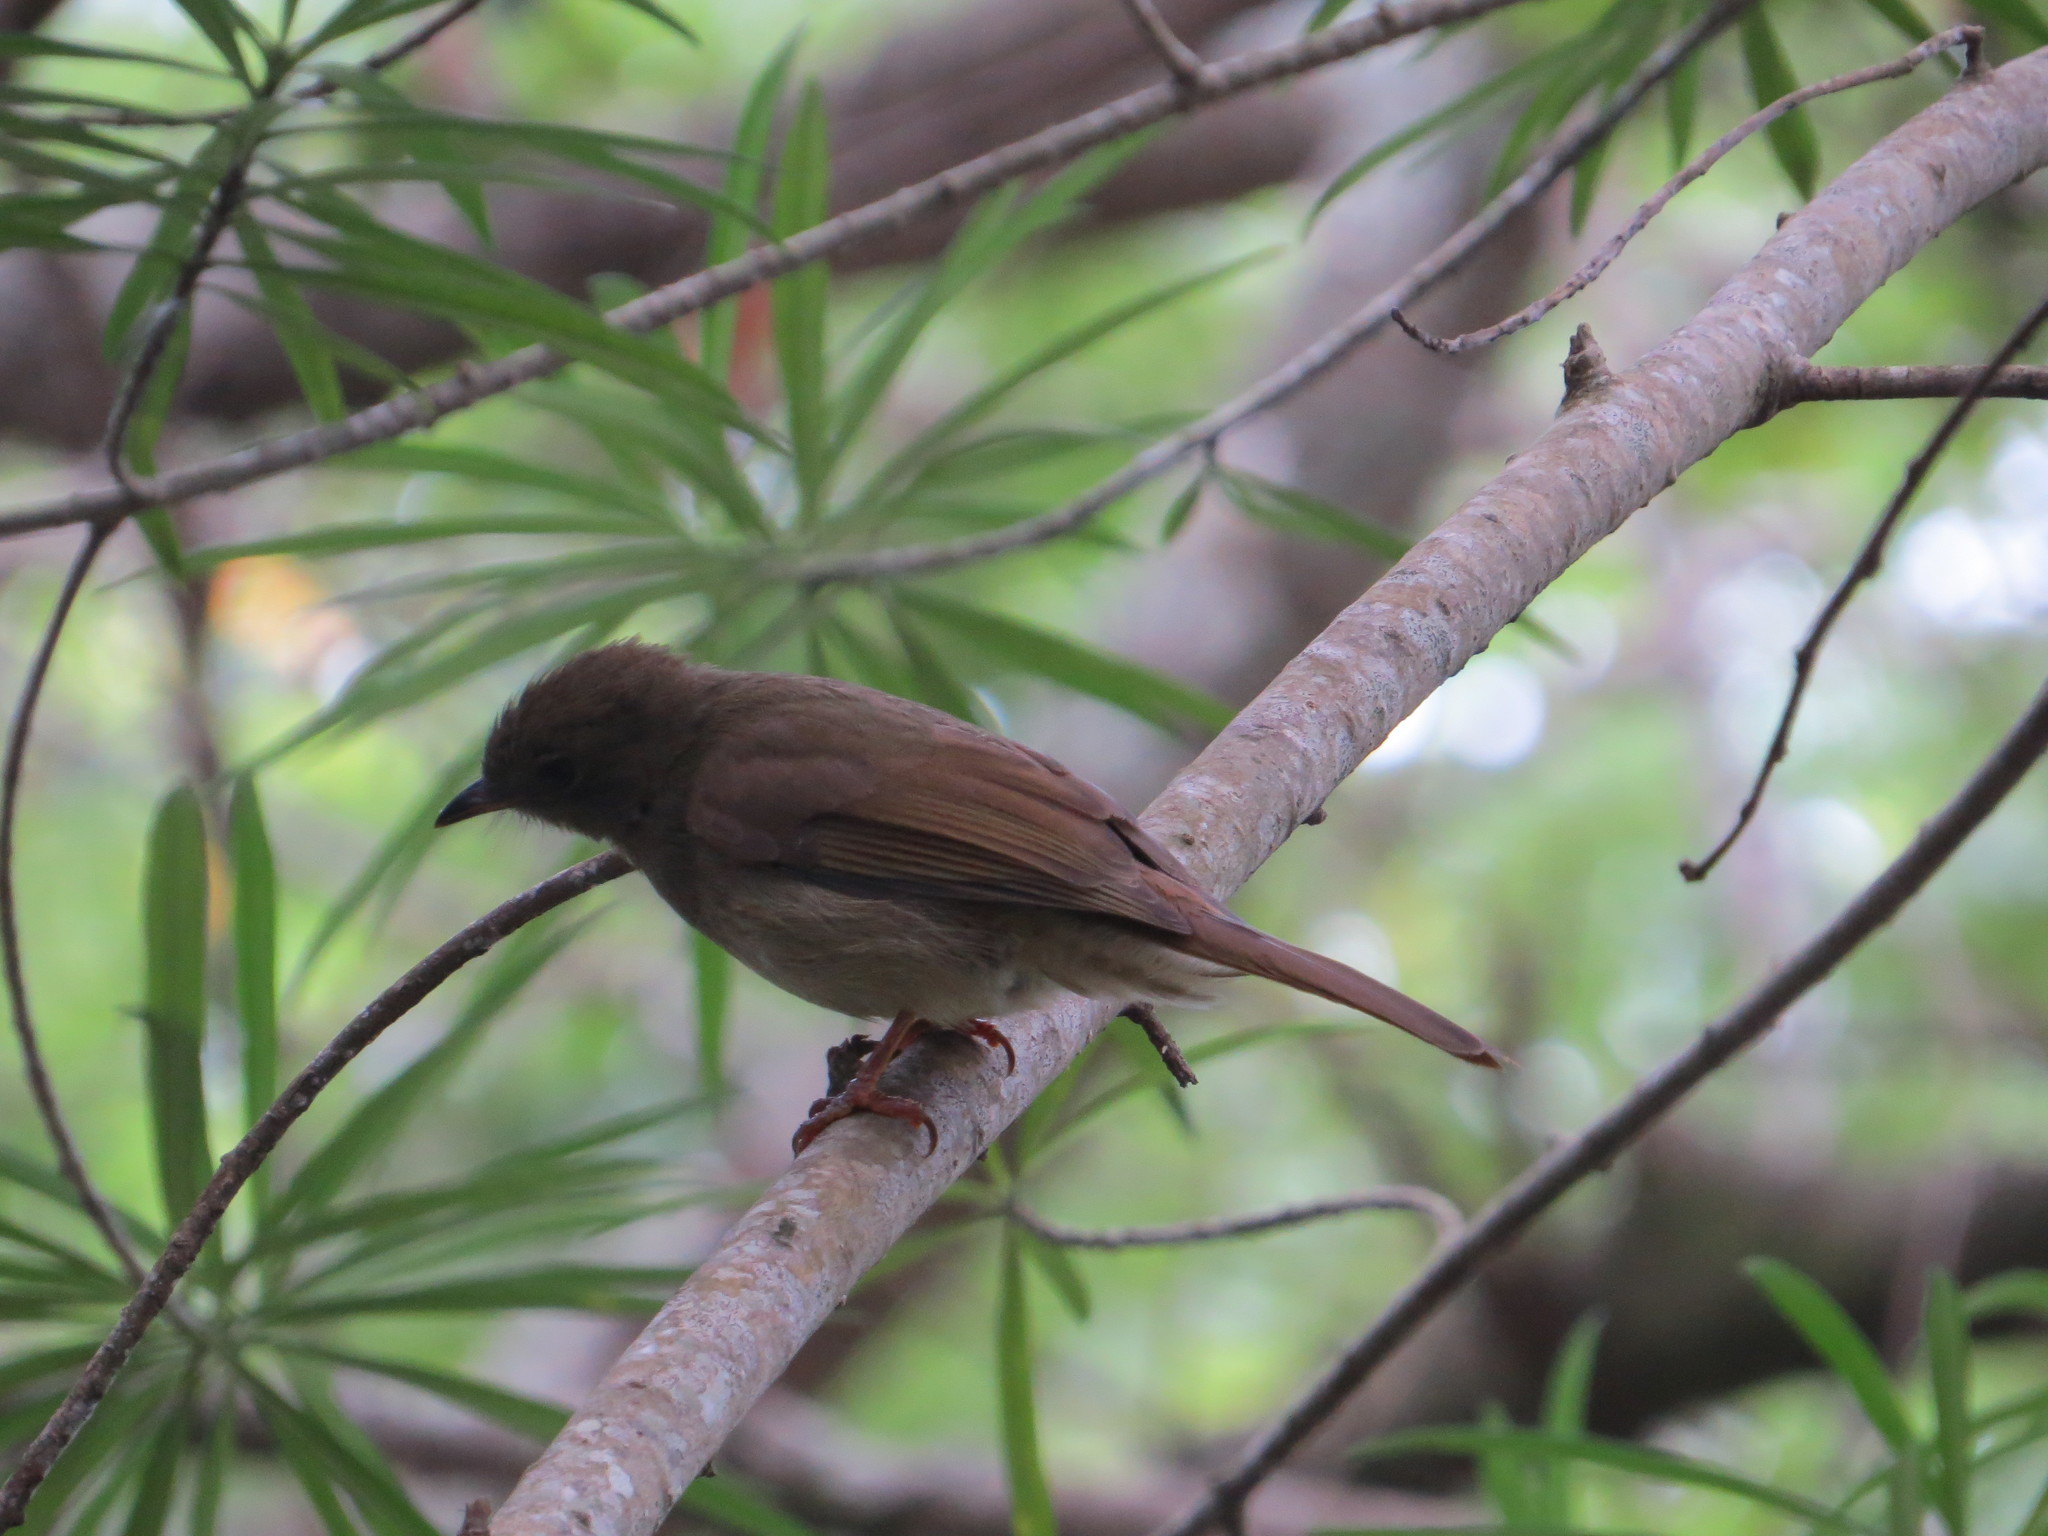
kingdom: Animalia
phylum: Chordata
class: Aves
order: Passeriformes
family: Pycnonotidae
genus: Eurillas
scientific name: Eurillas virens
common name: Little greenbul
